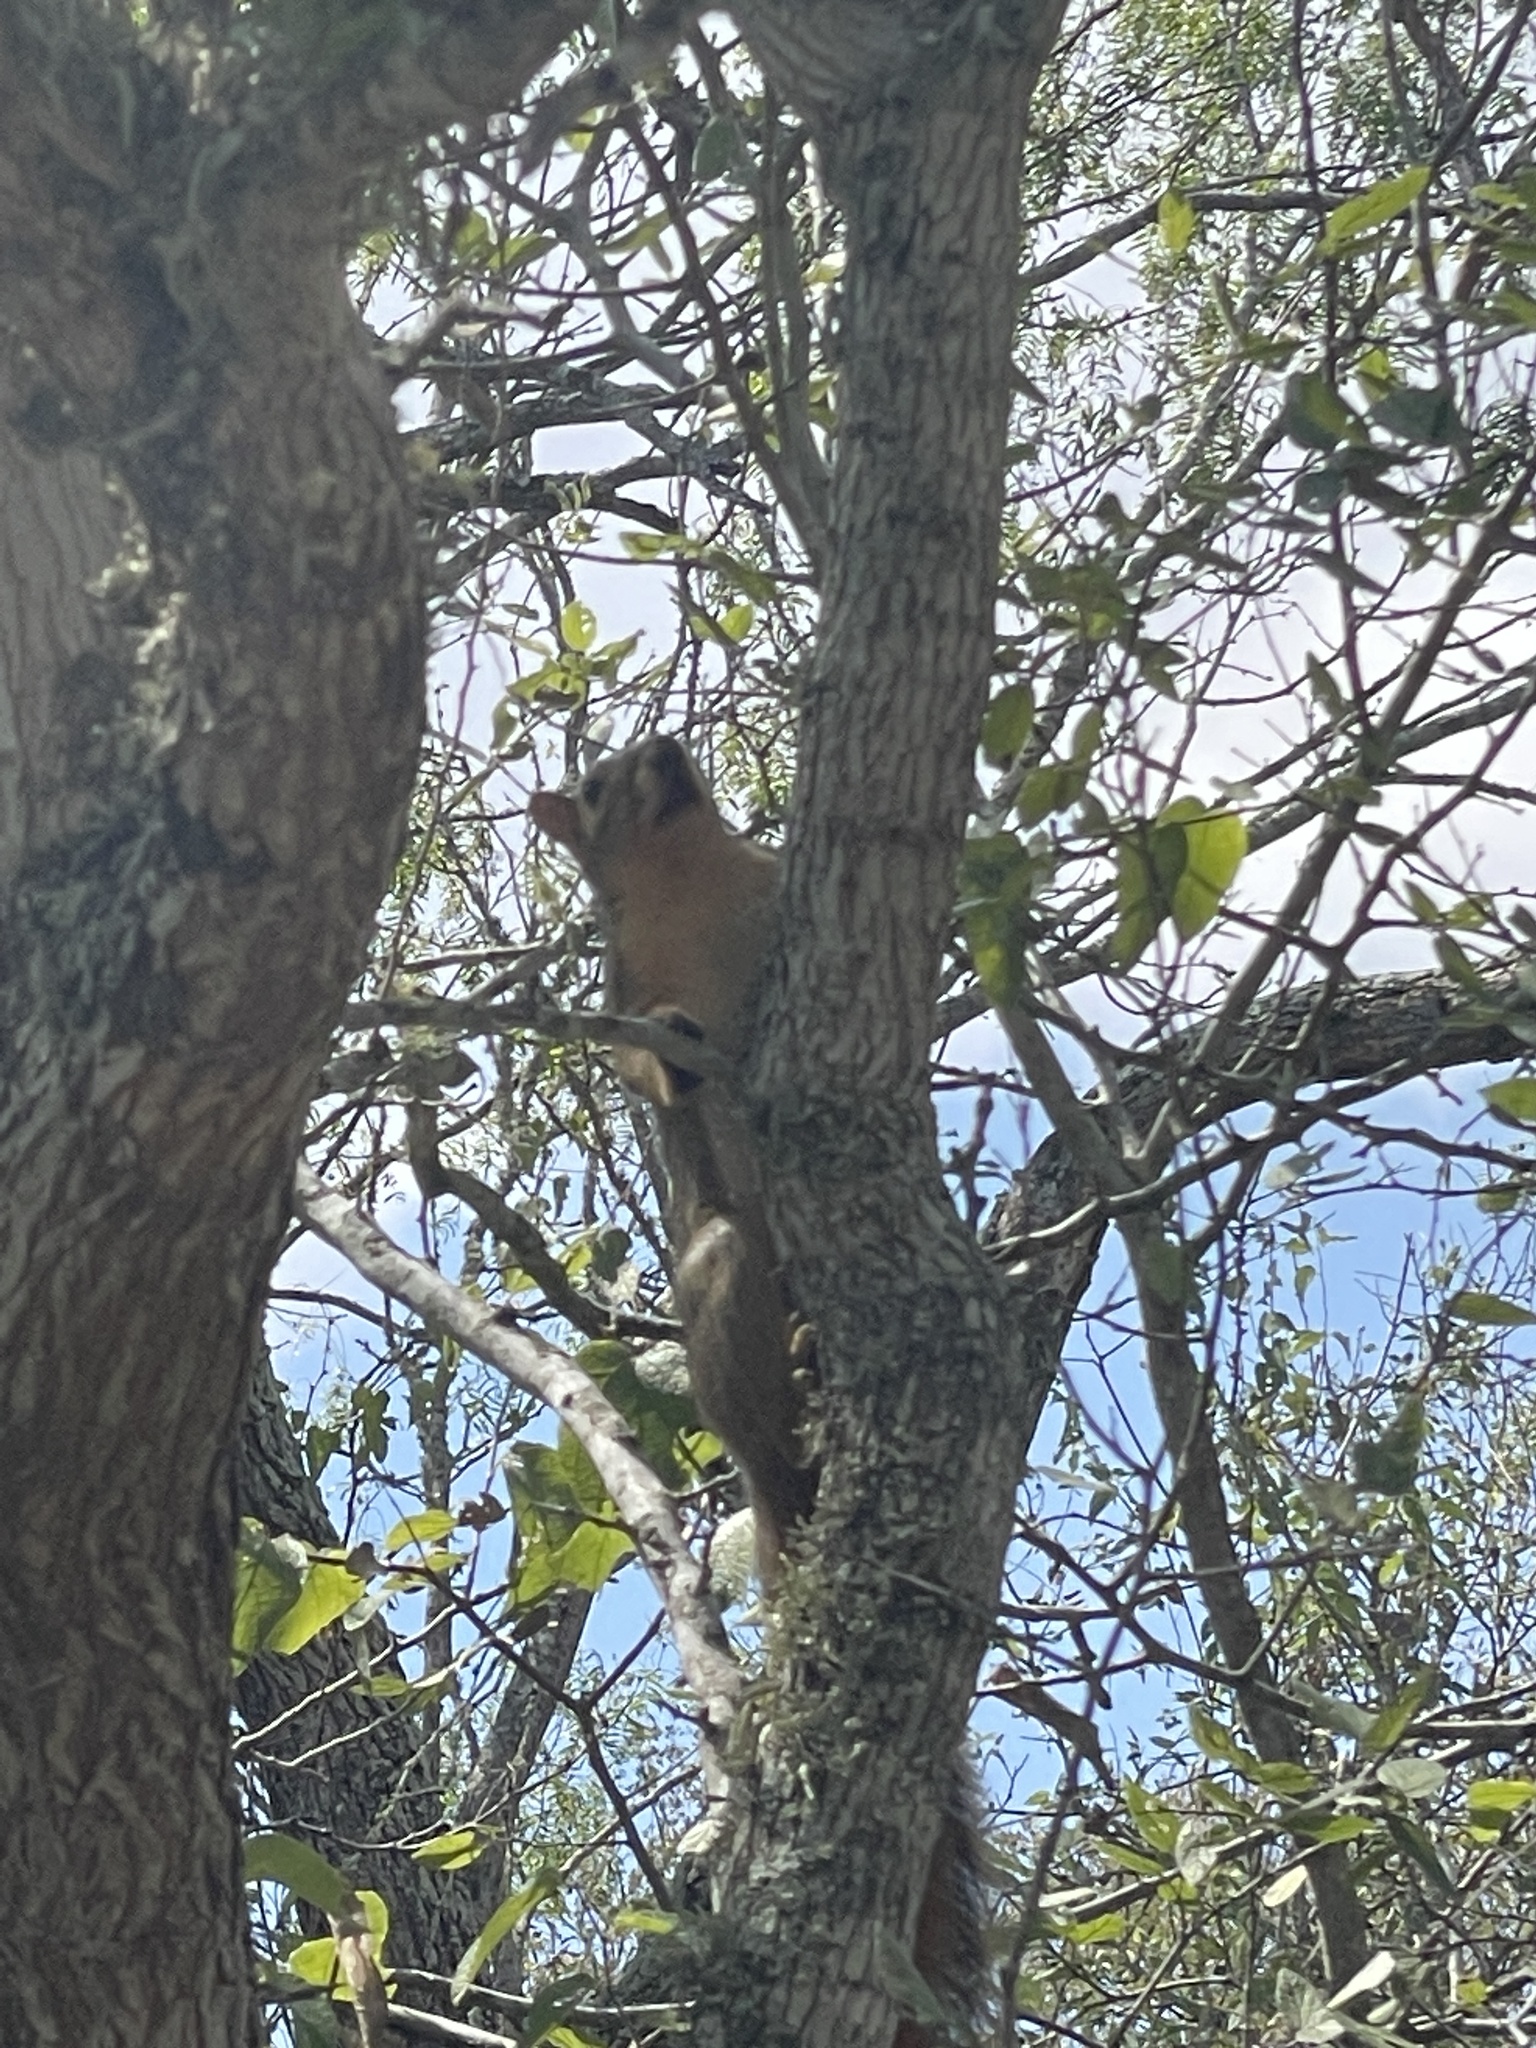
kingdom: Animalia
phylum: Chordata
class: Mammalia
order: Rodentia
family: Sciuridae
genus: Sciurus
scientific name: Sciurus niger
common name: Fox squirrel
